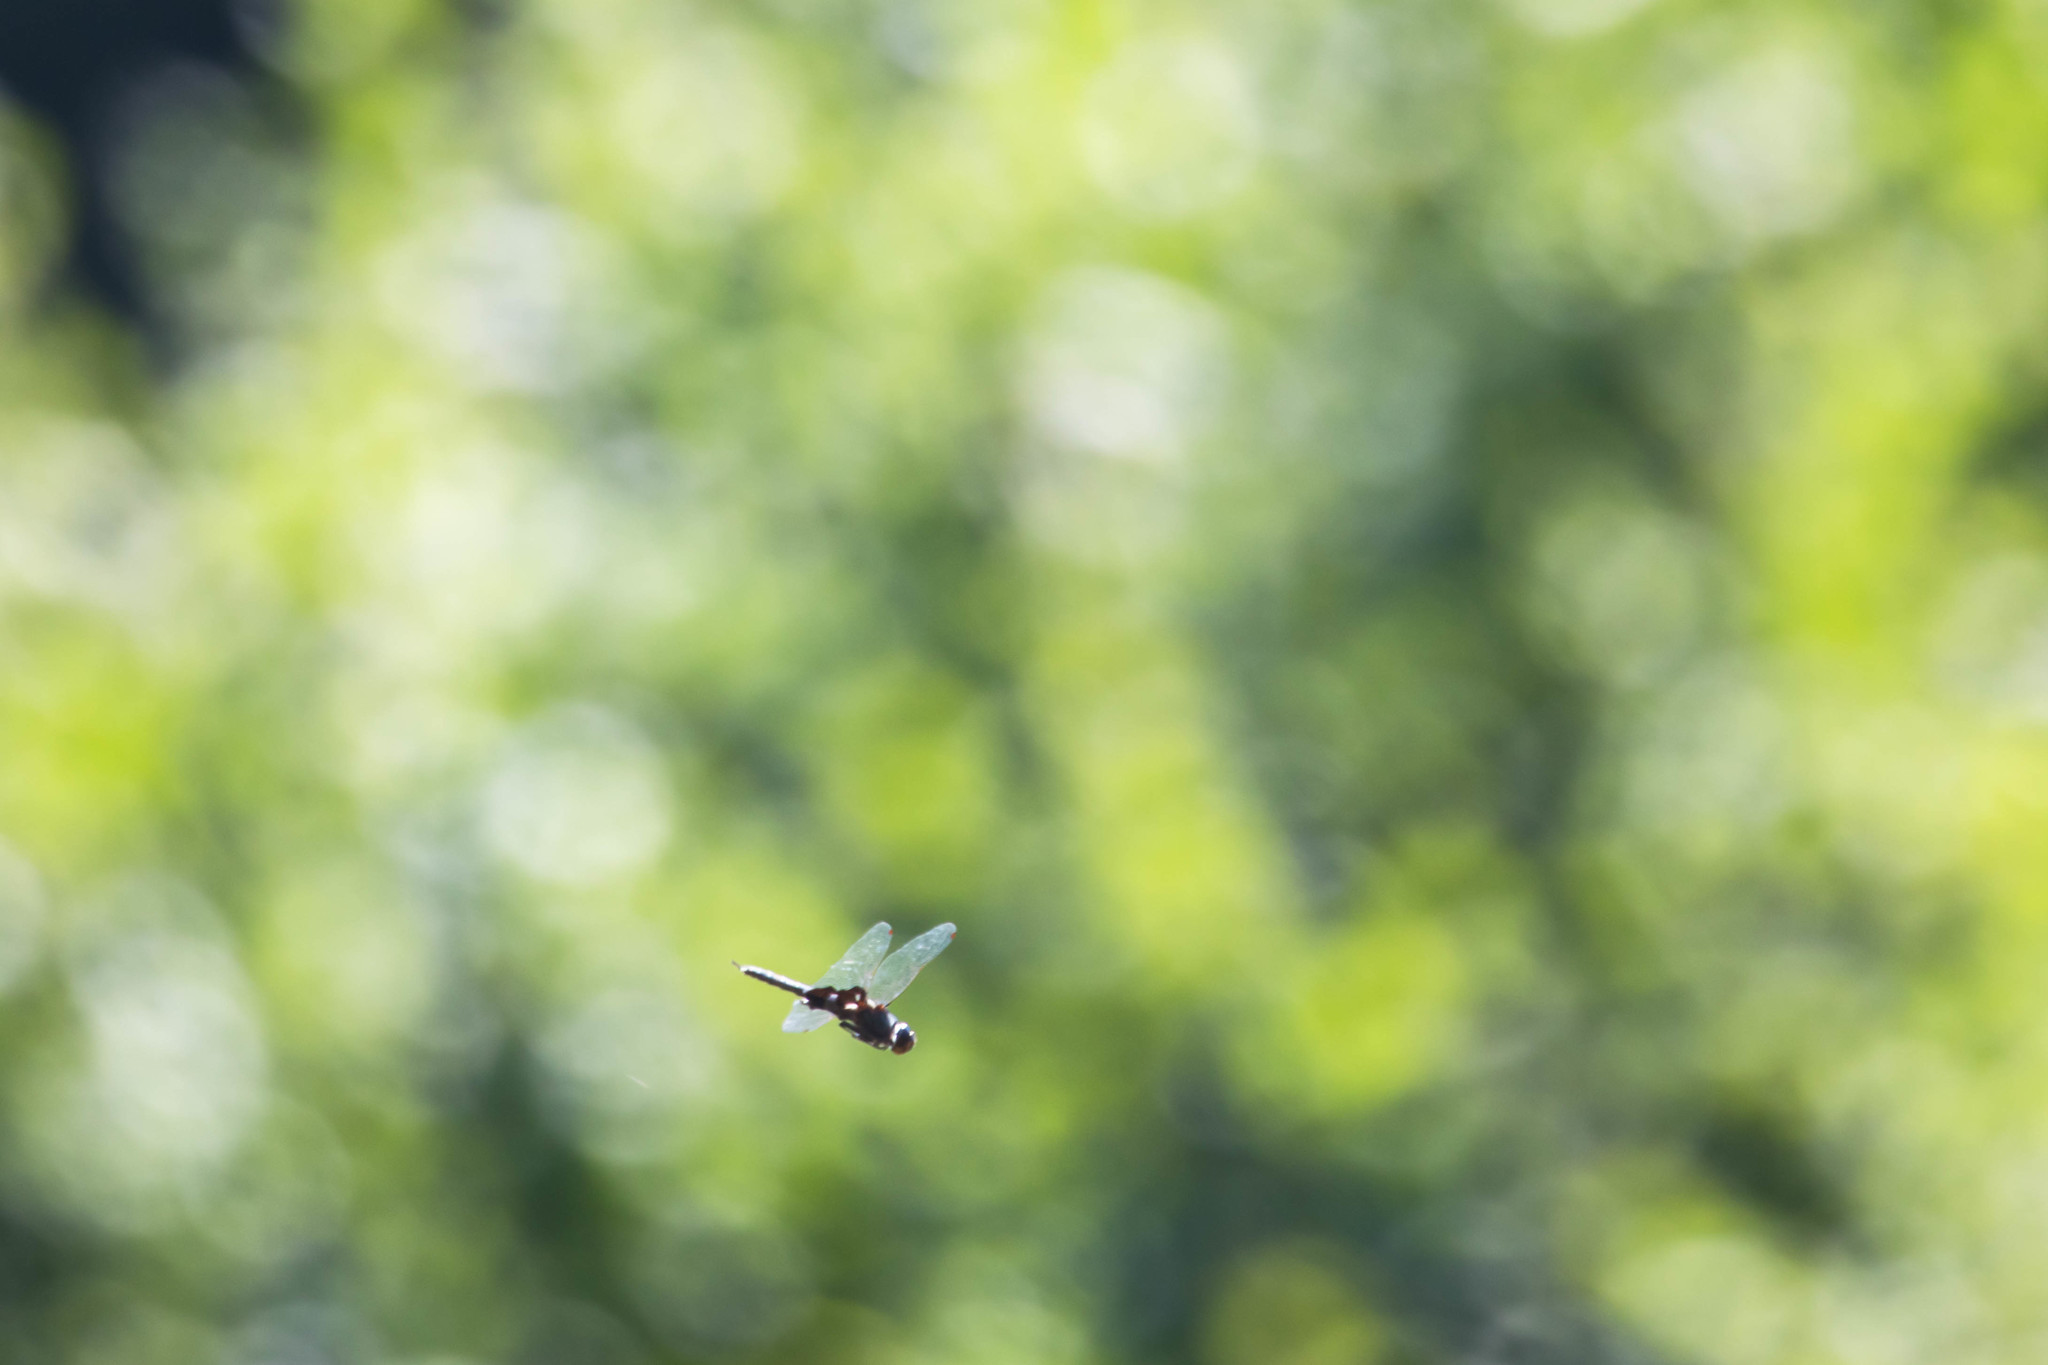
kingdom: Animalia
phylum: Arthropoda
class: Insecta
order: Odonata
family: Libellulidae
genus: Tramea
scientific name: Tramea lacerata
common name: Black saddlebags
